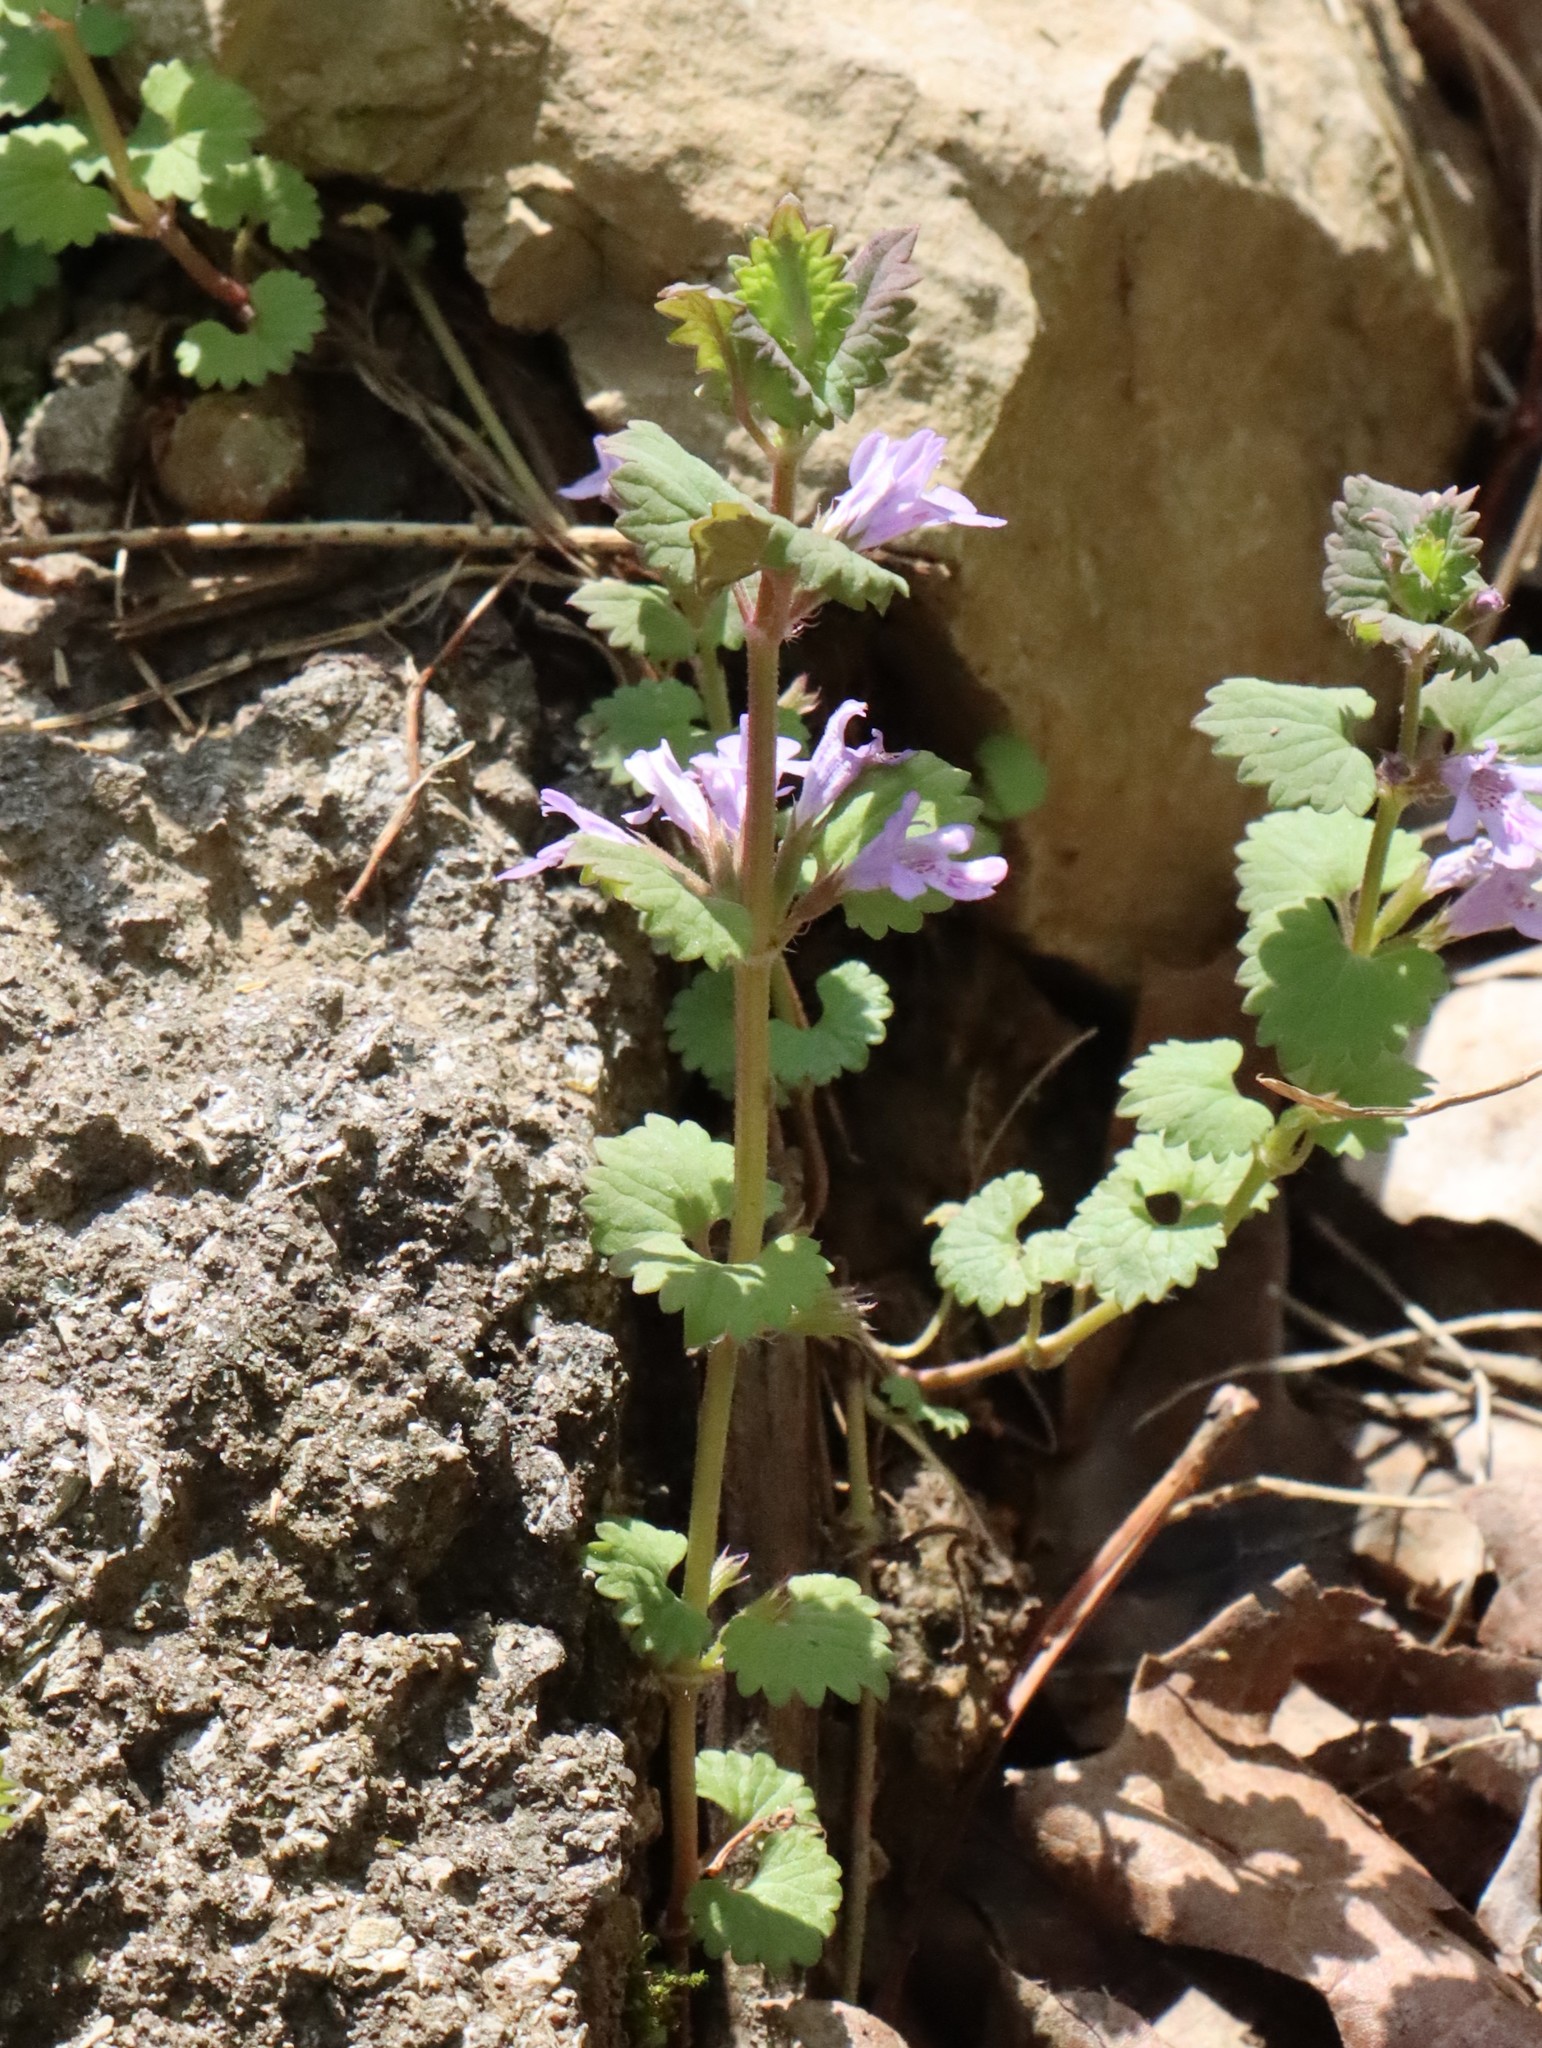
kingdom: Plantae
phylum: Tracheophyta
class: Magnoliopsida
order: Lamiales
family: Lamiaceae
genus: Glechoma
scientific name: Glechoma hederacea
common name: Ground ivy
